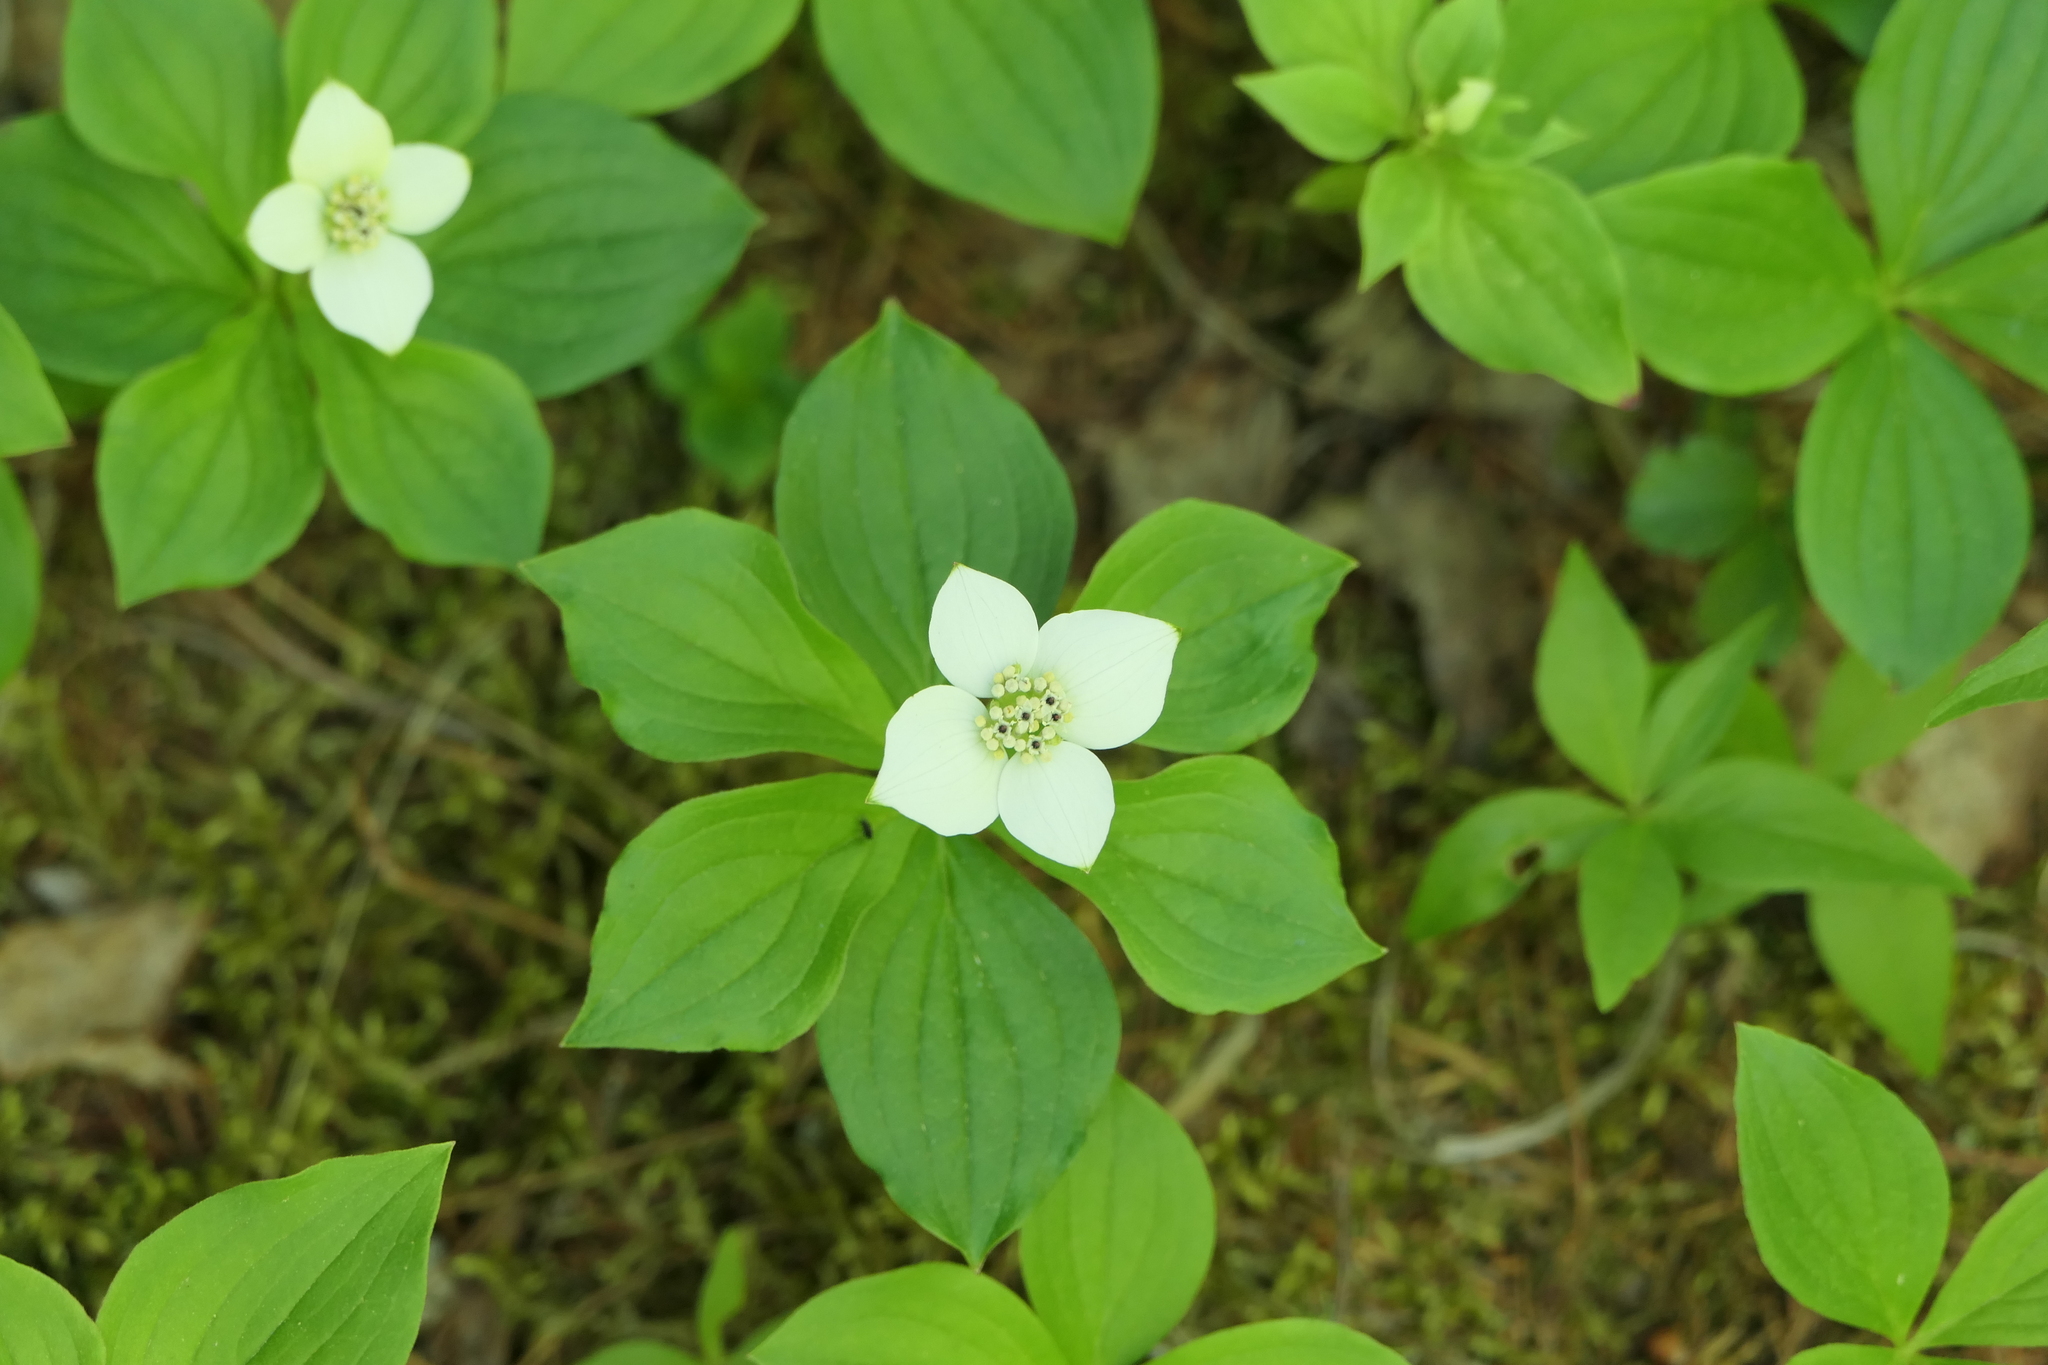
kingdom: Plantae
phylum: Tracheophyta
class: Magnoliopsida
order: Cornales
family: Cornaceae
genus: Cornus
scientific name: Cornus canadensis
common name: Creeping dogwood
